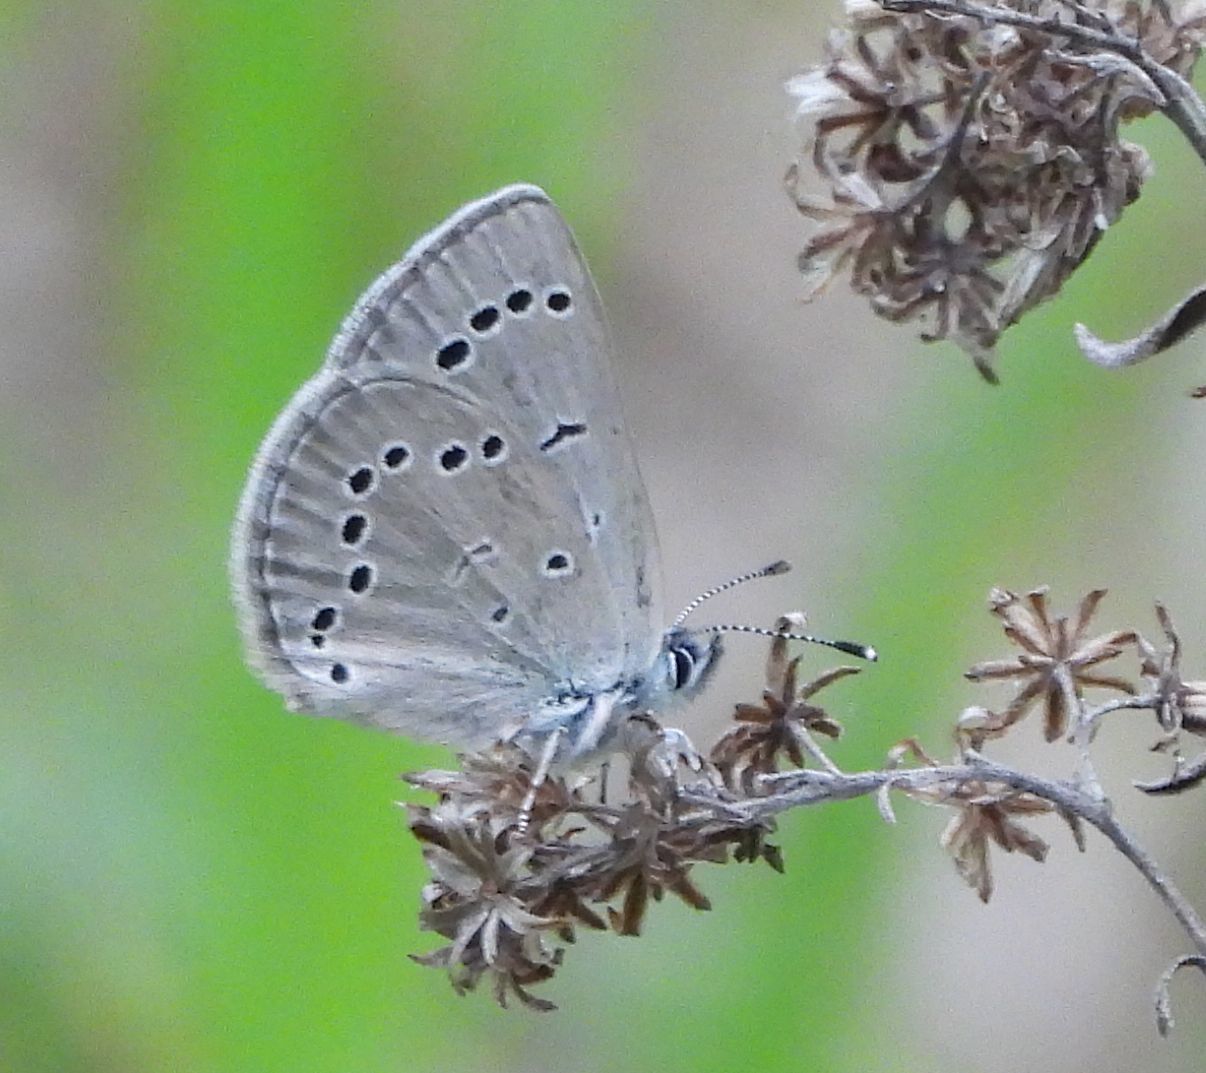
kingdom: Animalia
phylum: Arthropoda
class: Insecta
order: Lepidoptera
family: Lycaenidae
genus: Glaucopsyche
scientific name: Glaucopsyche lygdamus
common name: Silvery blue
